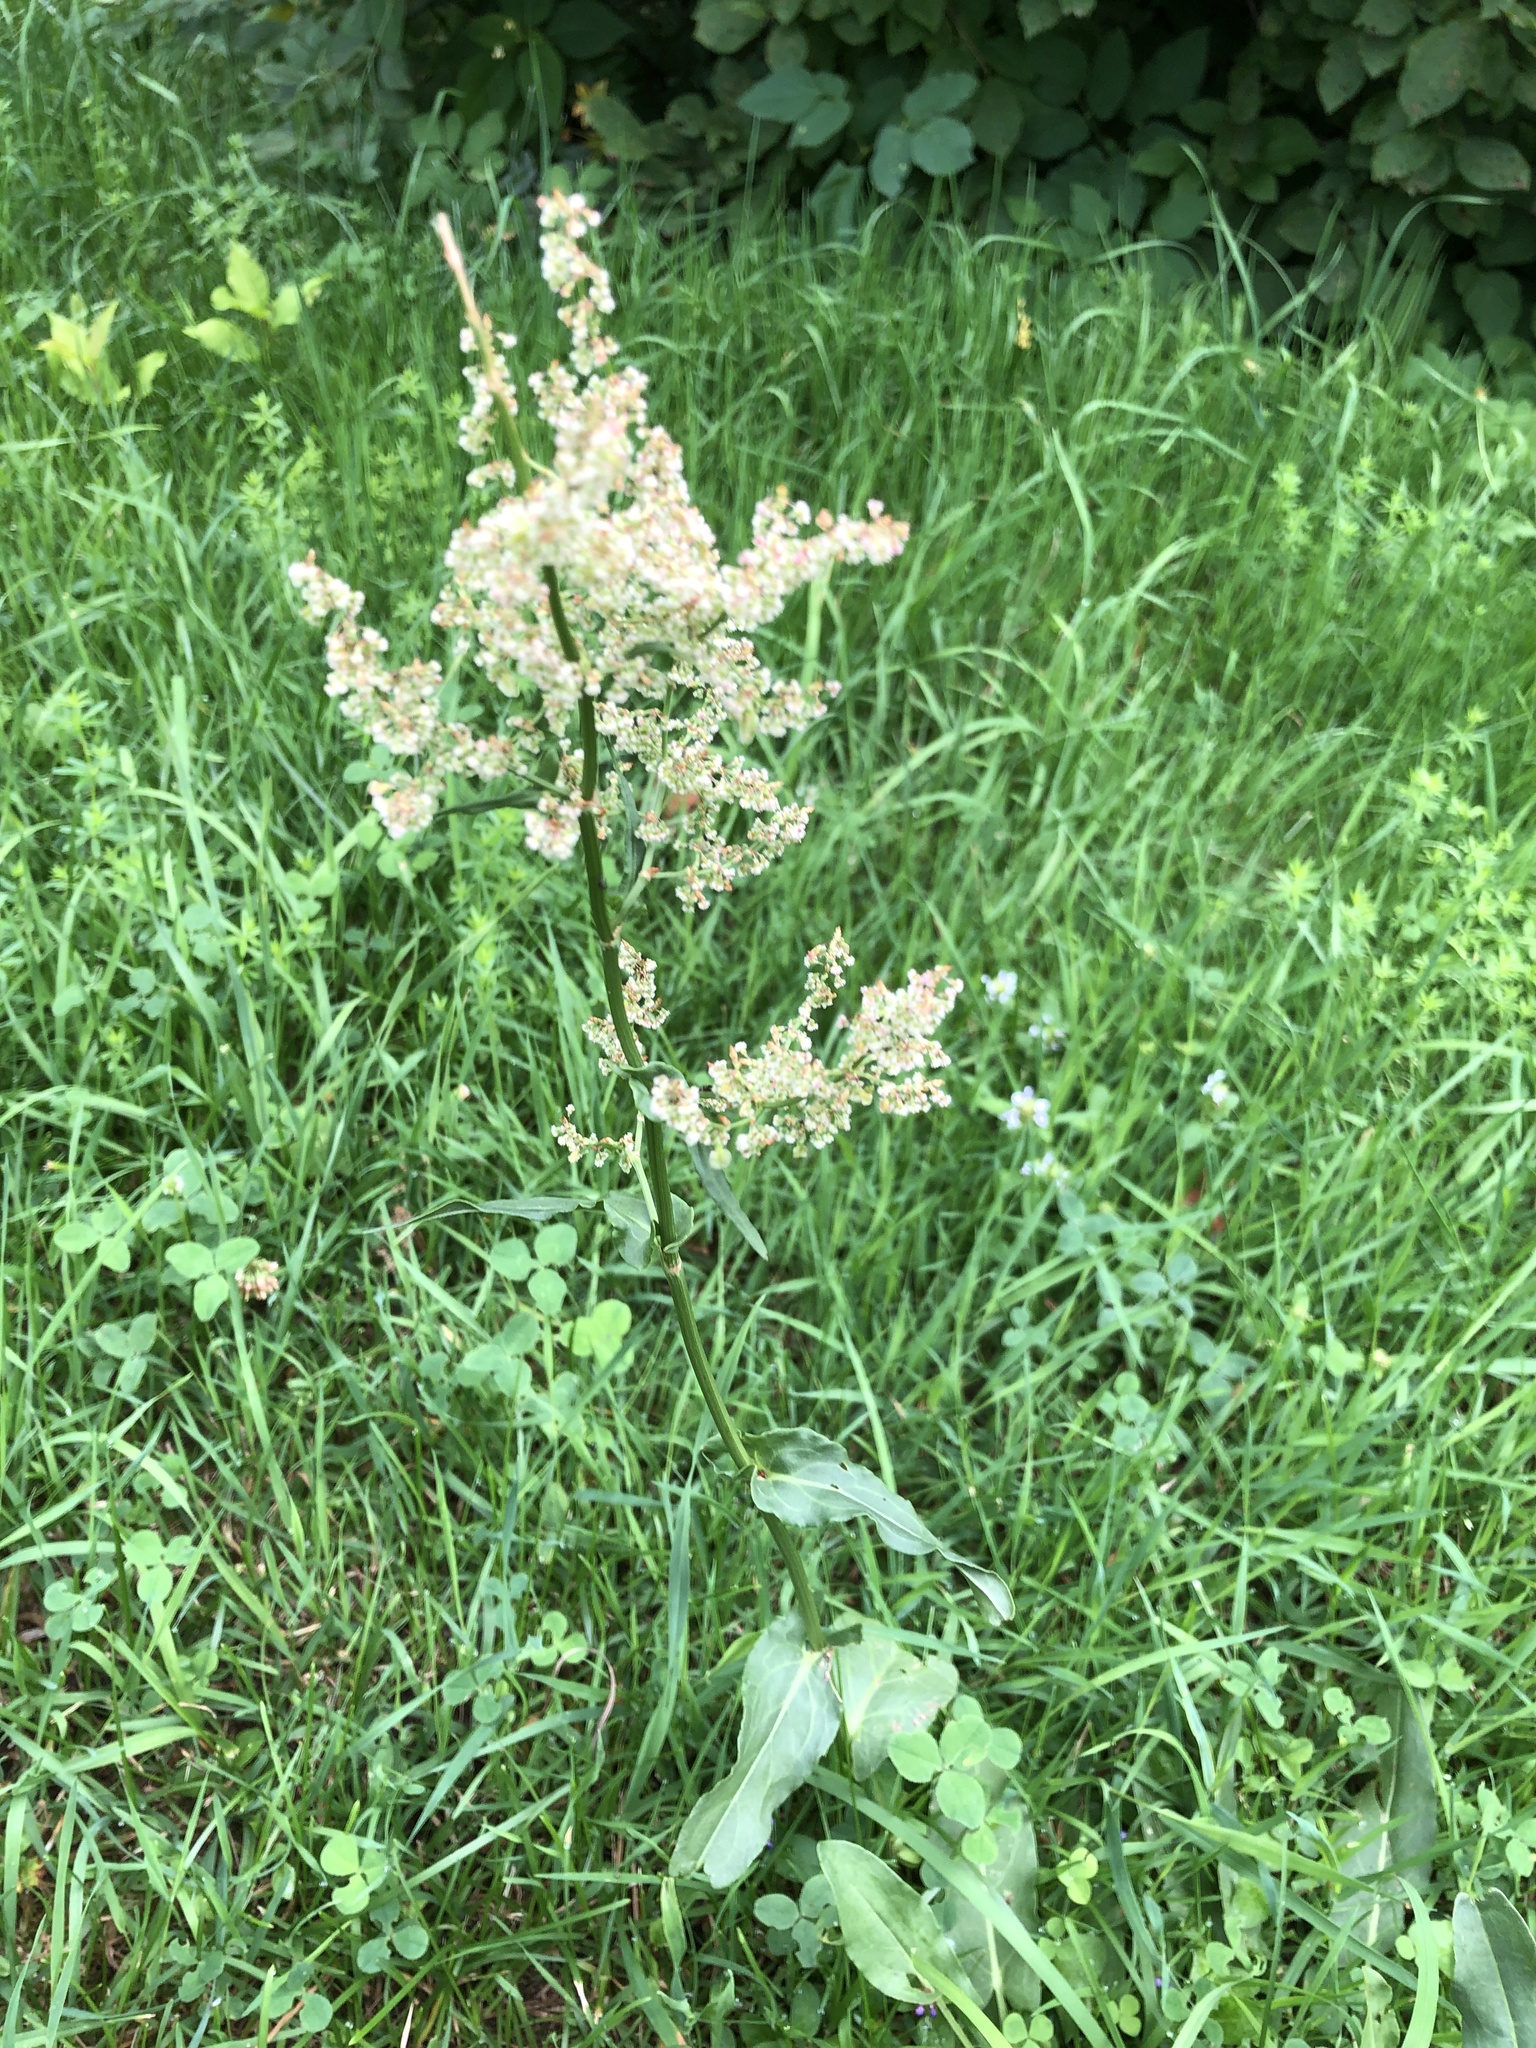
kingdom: Plantae
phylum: Tracheophyta
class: Magnoliopsida
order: Caryophyllales
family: Polygonaceae
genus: Rumex
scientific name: Rumex thyrsiflorus
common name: Garden sorrel
